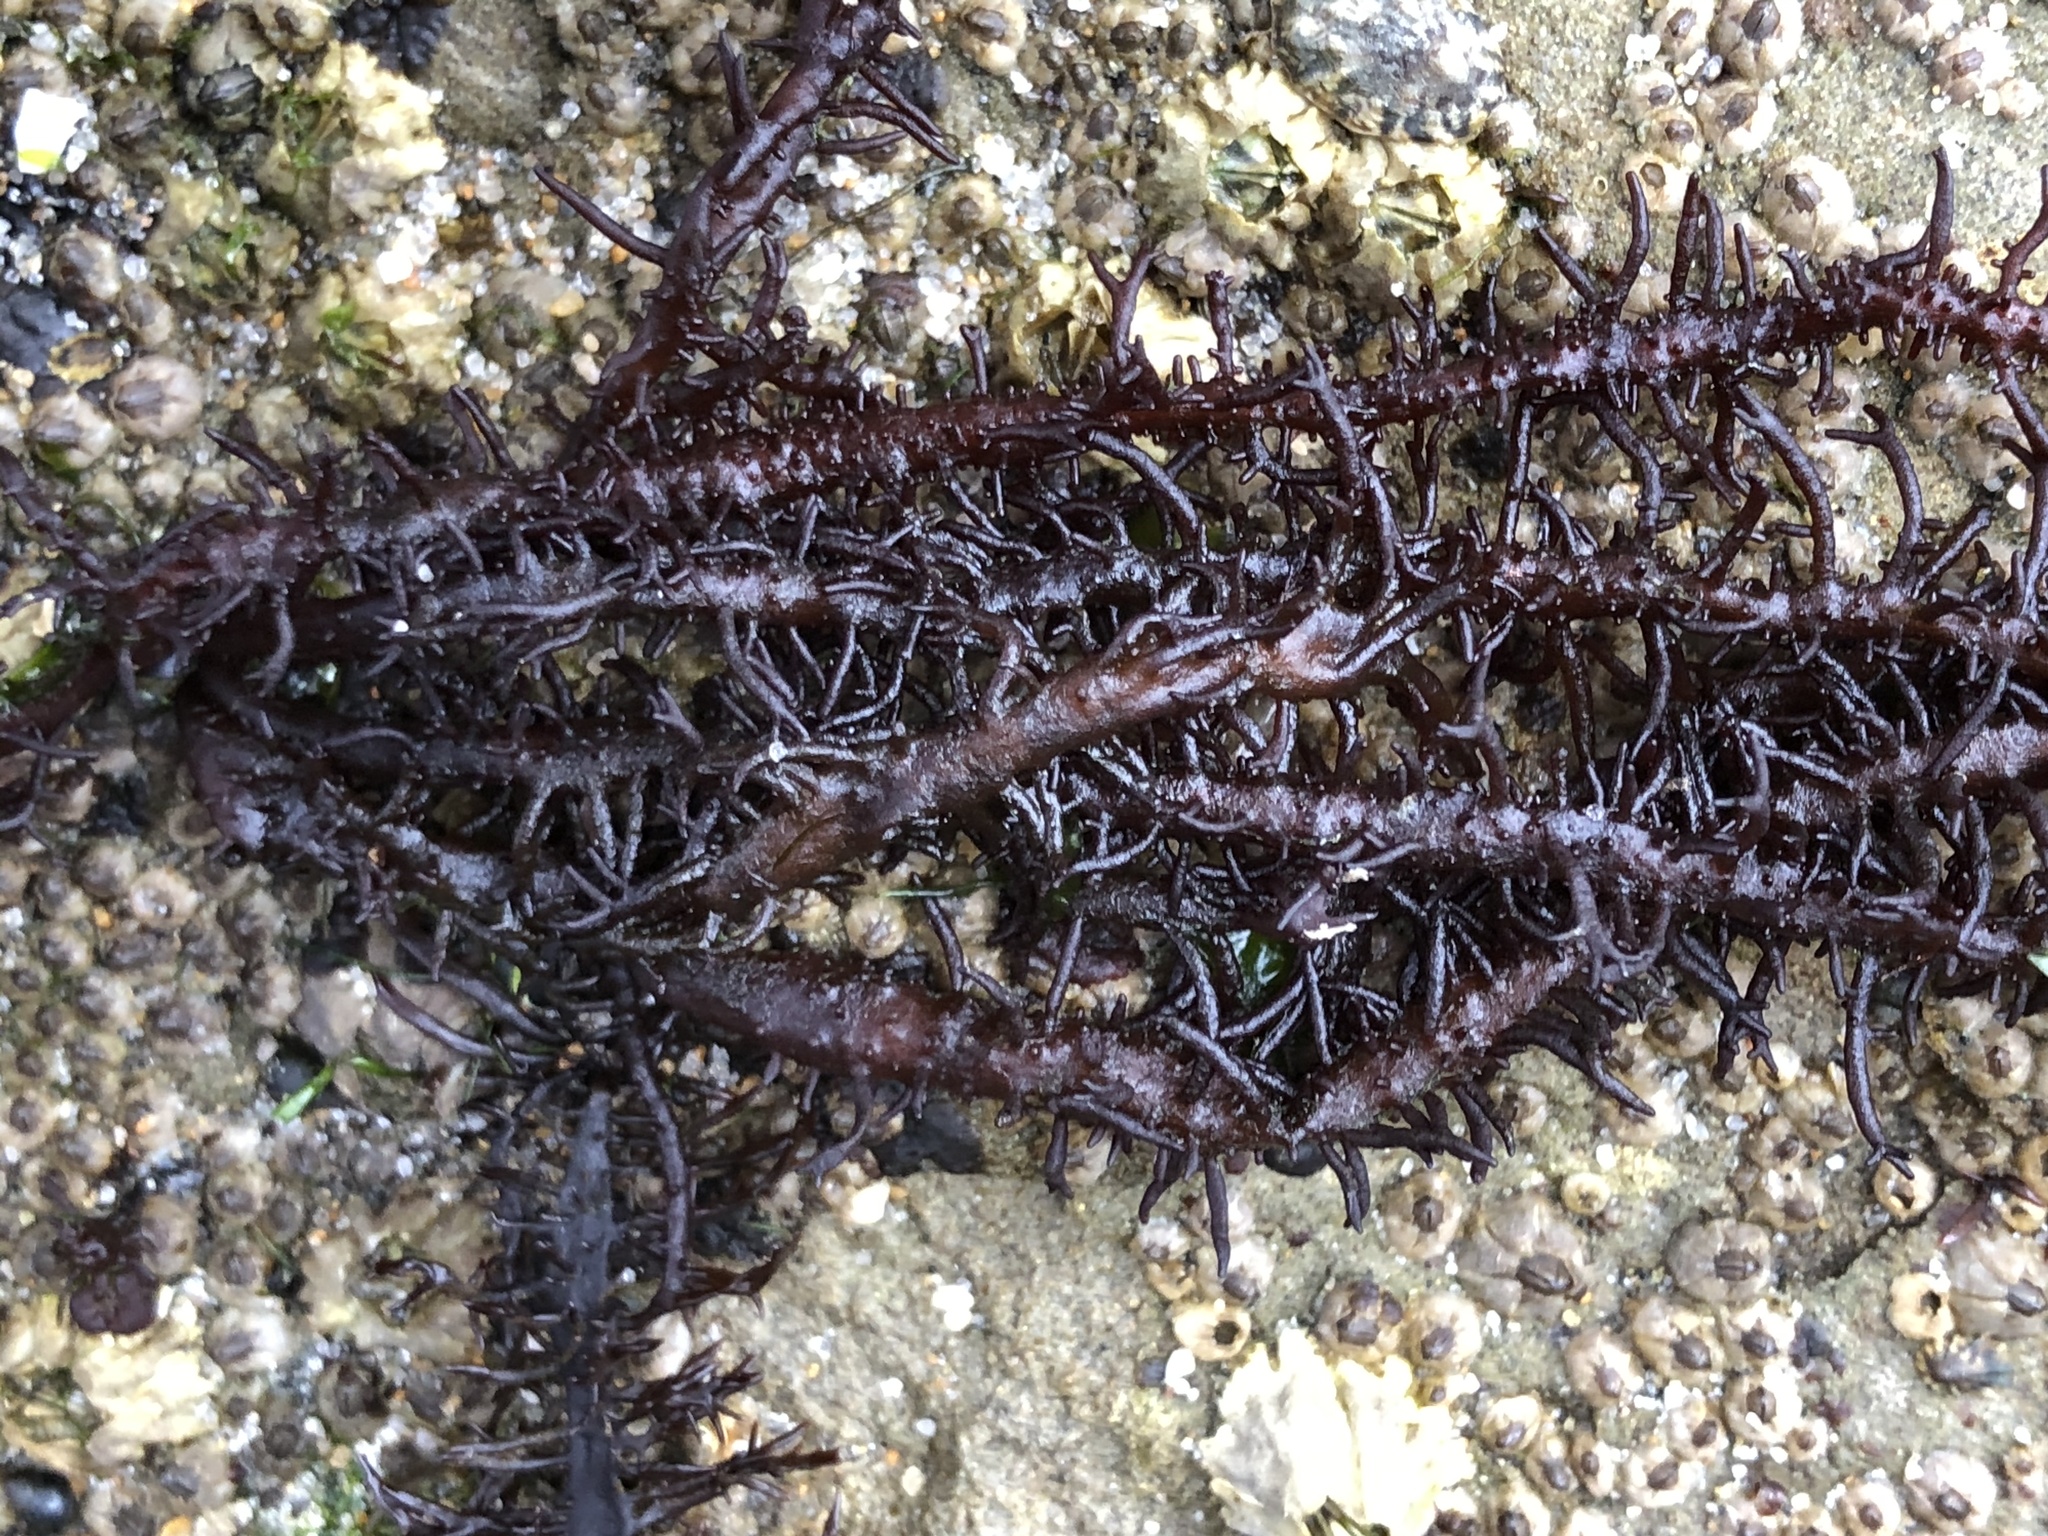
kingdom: Plantae
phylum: Rhodophyta
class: Florideophyceae
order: Nemaliales
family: Liagoraceae
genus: Cumagloia
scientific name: Cumagloia andersonii
